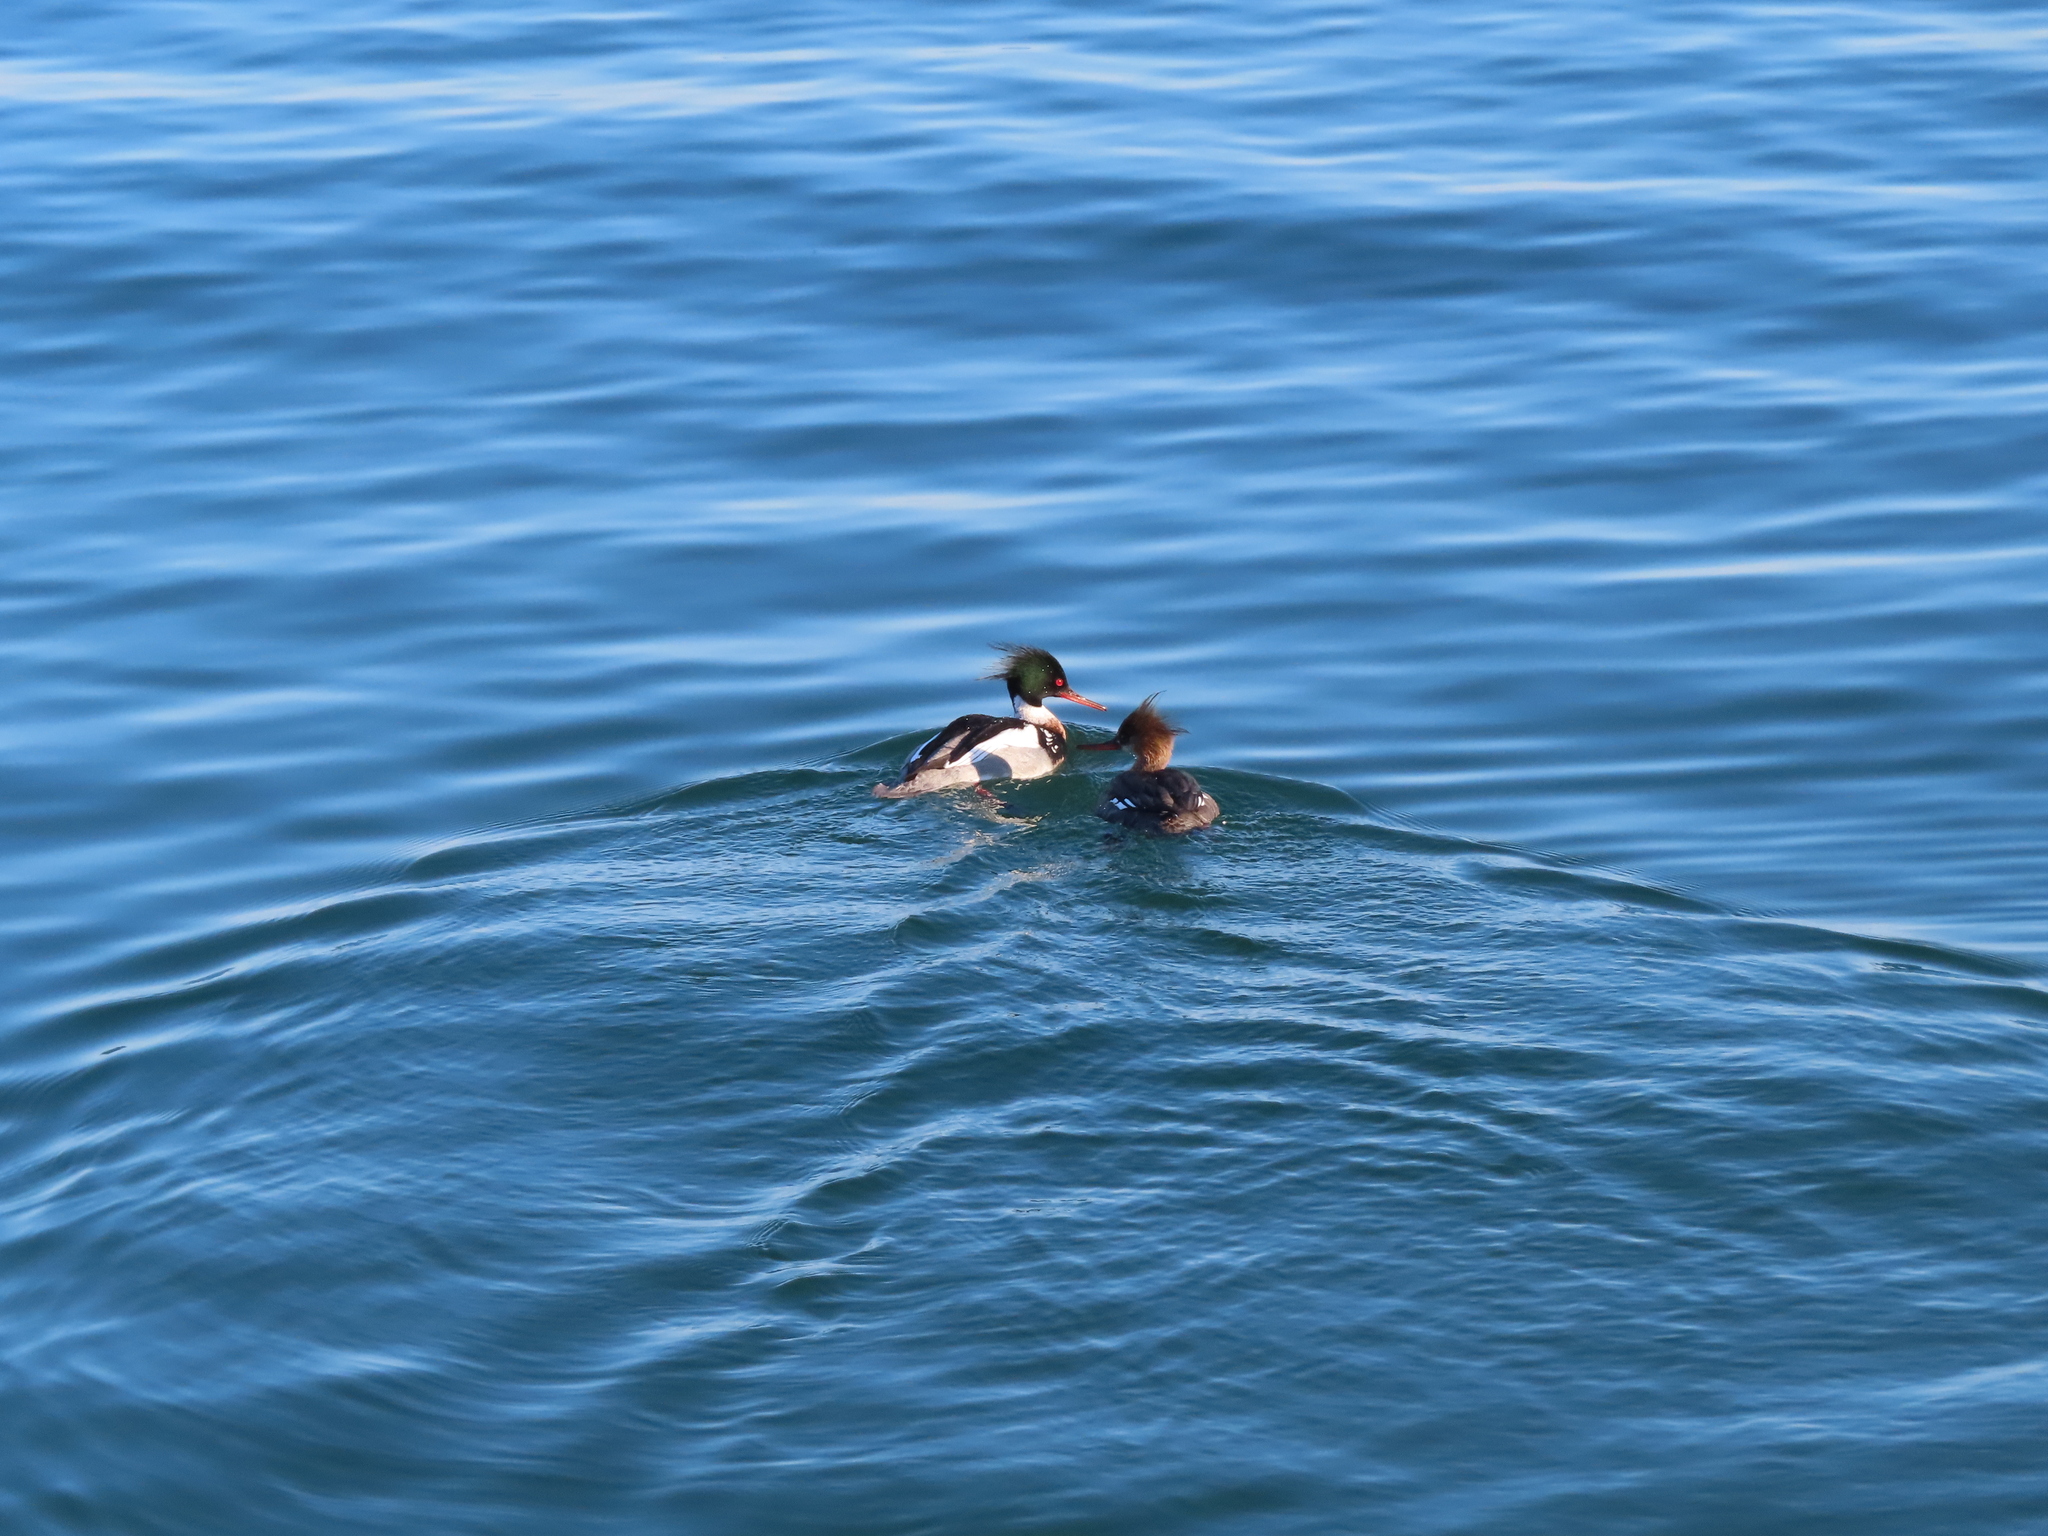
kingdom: Animalia
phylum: Chordata
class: Aves
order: Anseriformes
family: Anatidae
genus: Mergus
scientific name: Mergus serrator
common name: Red-breasted merganser
